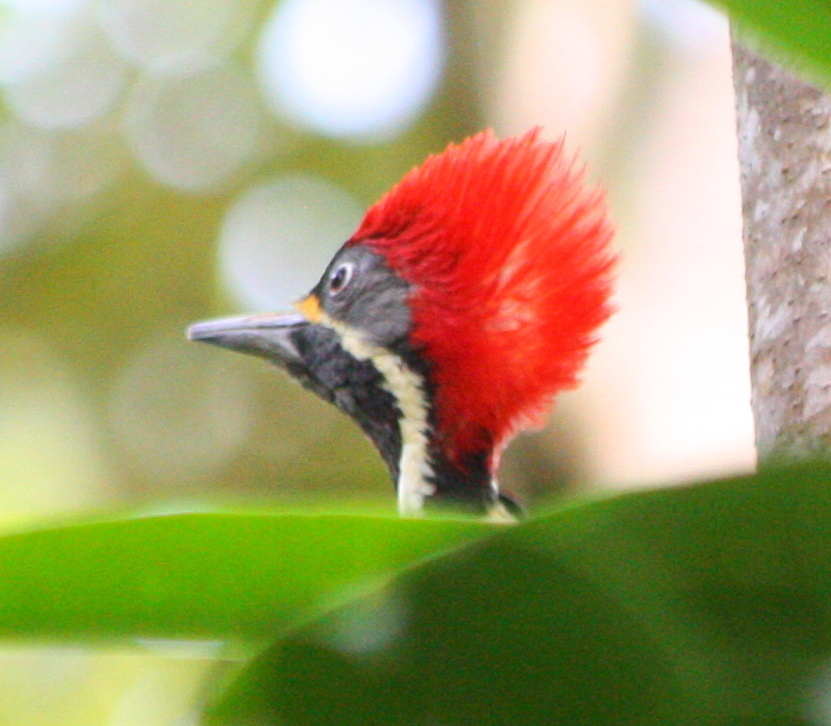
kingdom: Animalia
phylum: Chordata
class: Aves
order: Piciformes
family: Picidae
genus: Dryocopus
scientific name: Dryocopus lineatus
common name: Lineated woodpecker
